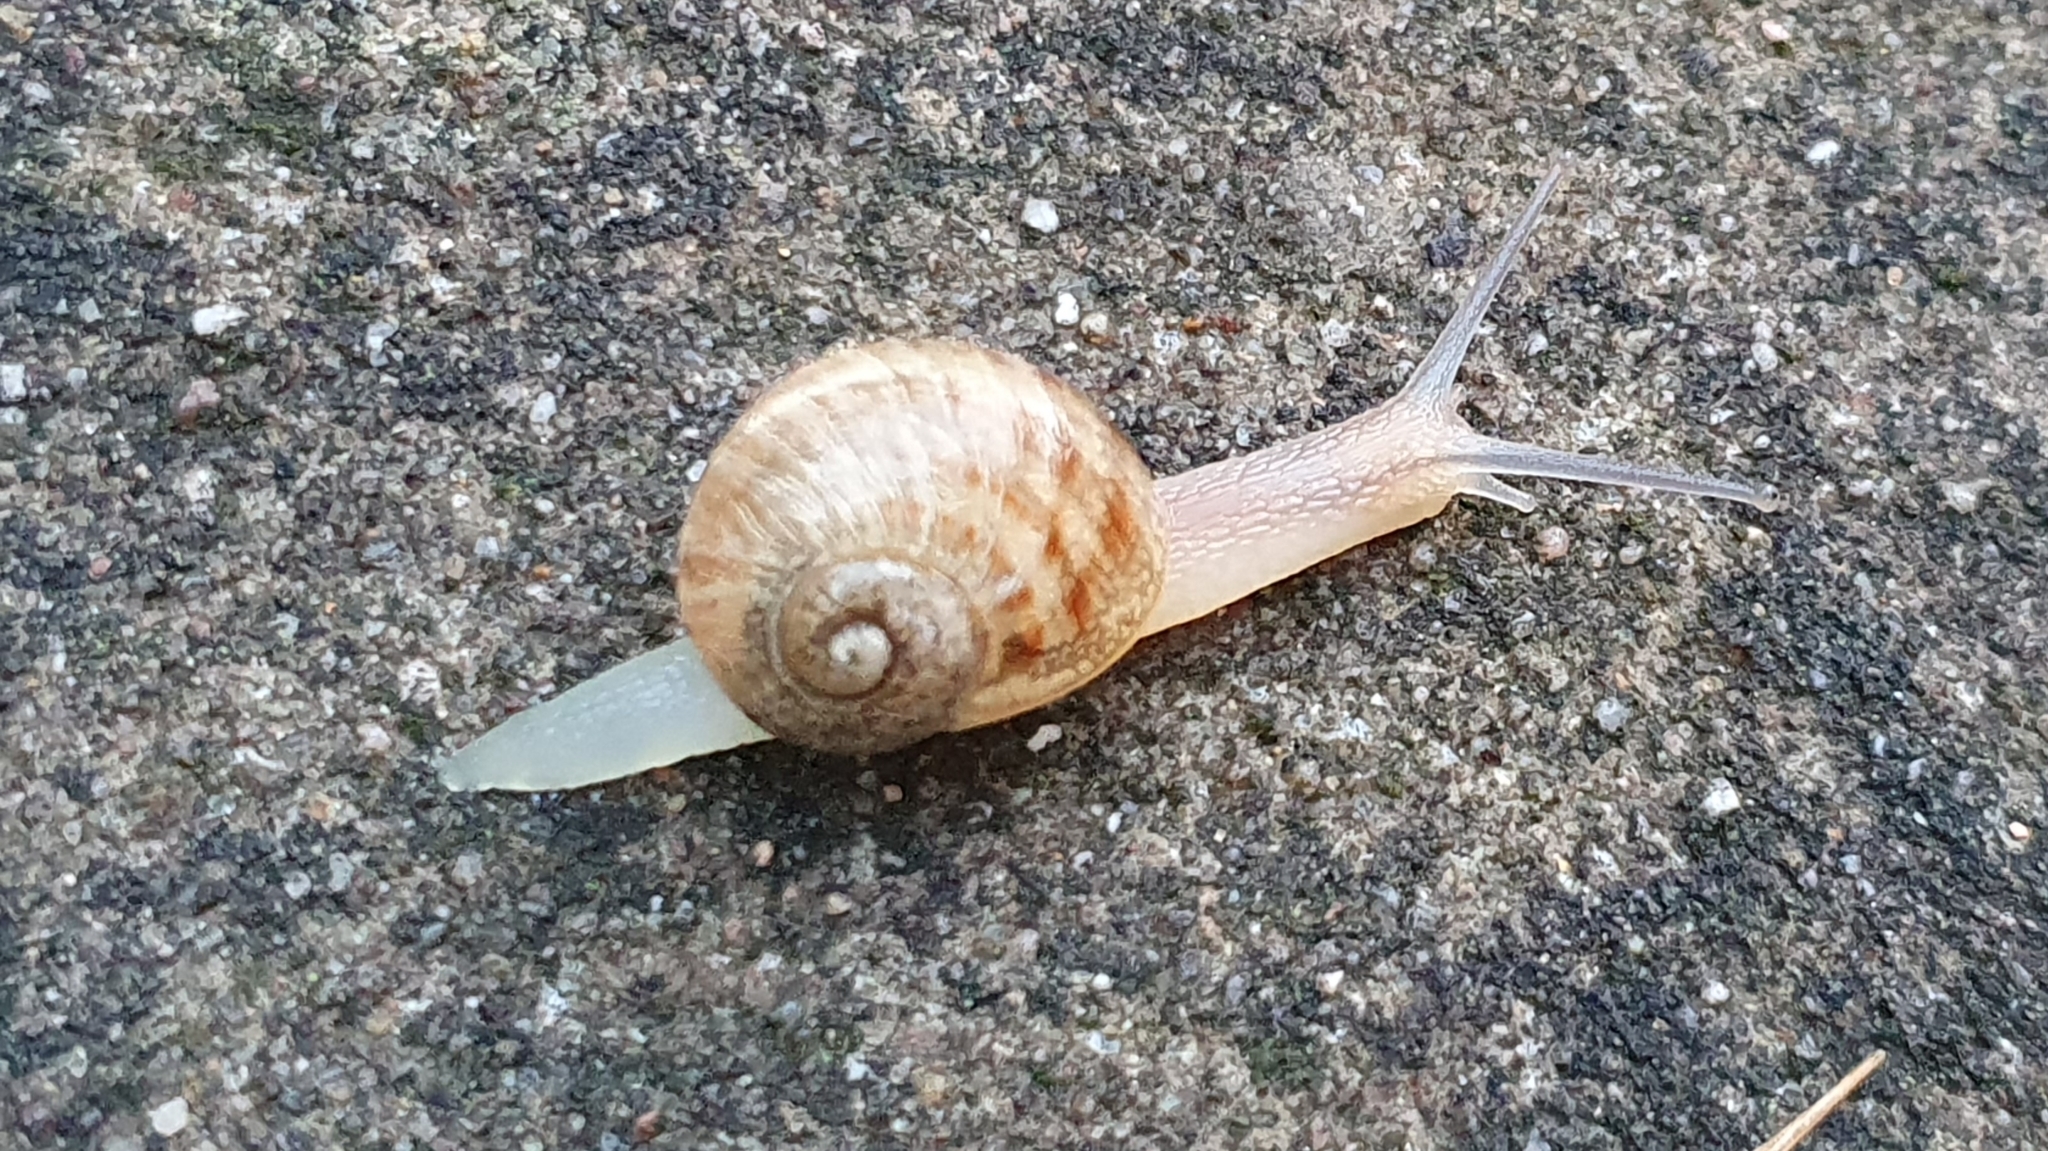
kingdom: Animalia
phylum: Mollusca
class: Gastropoda
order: Stylommatophora
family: Helicidae
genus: Cornu
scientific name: Cornu aspersum
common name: Brown garden snail
